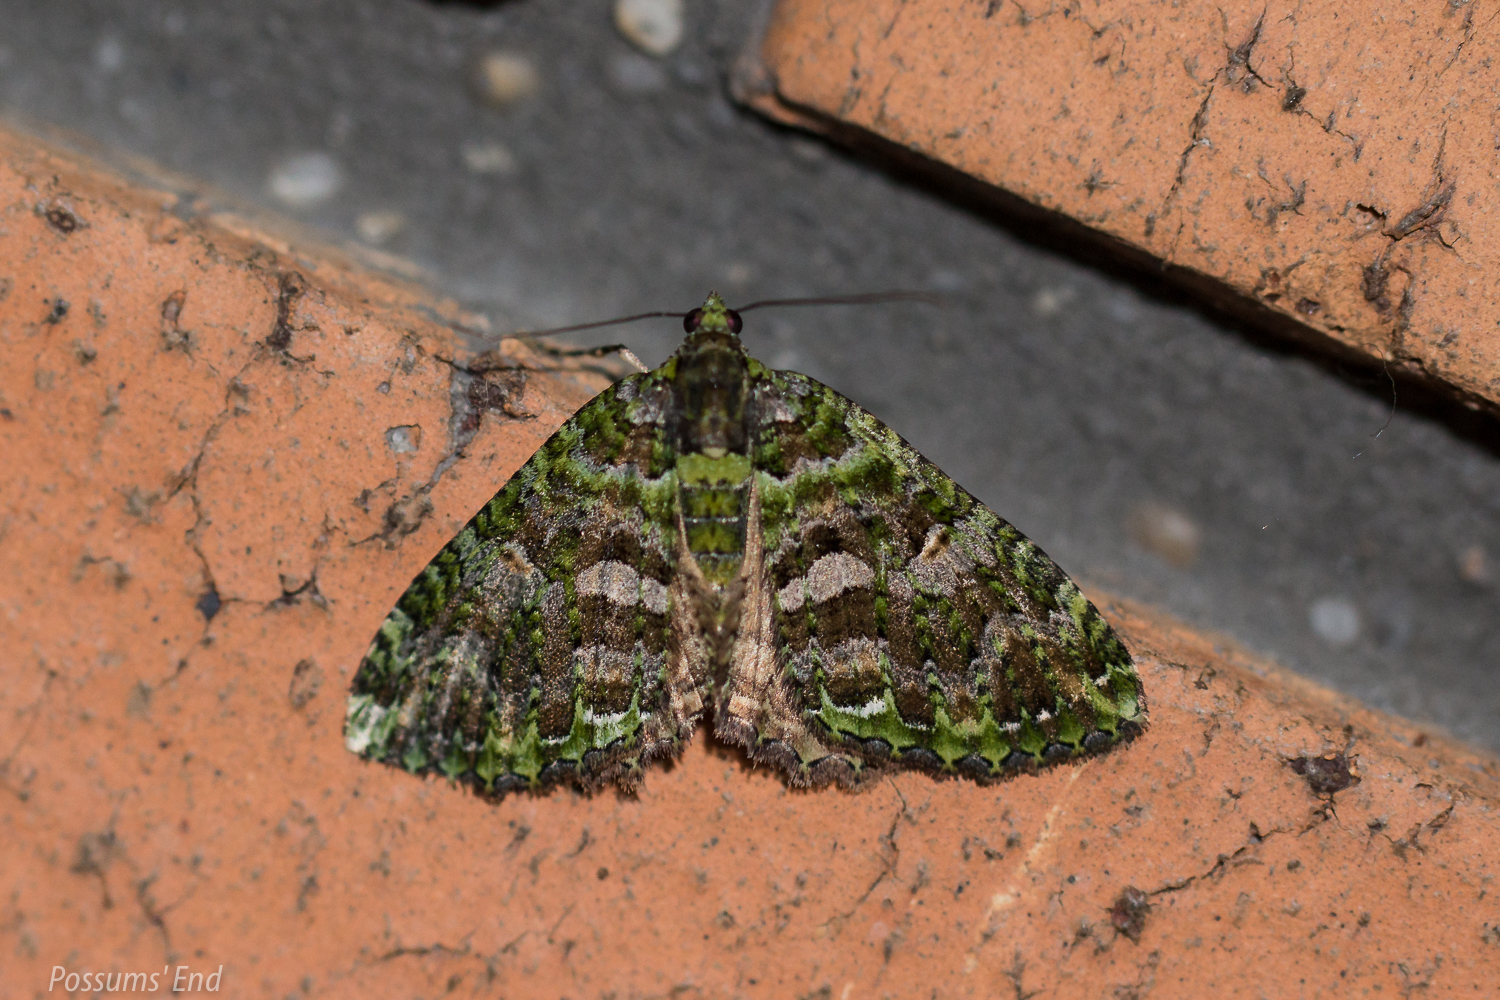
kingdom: Animalia
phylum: Arthropoda
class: Insecta
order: Lepidoptera
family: Geometridae
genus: Austrocidaria
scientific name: Austrocidaria similata
